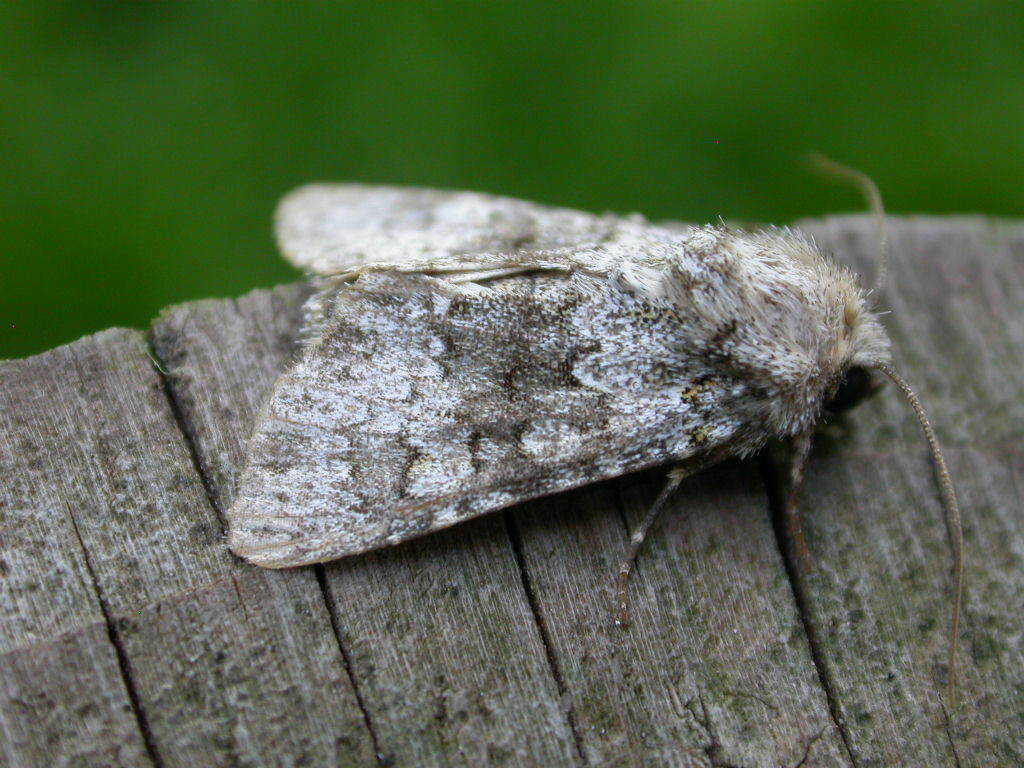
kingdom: Animalia
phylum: Arthropoda
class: Insecta
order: Lepidoptera
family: Noctuidae
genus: Hecatera
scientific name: Hecatera dysodea
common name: Small ranunculus
